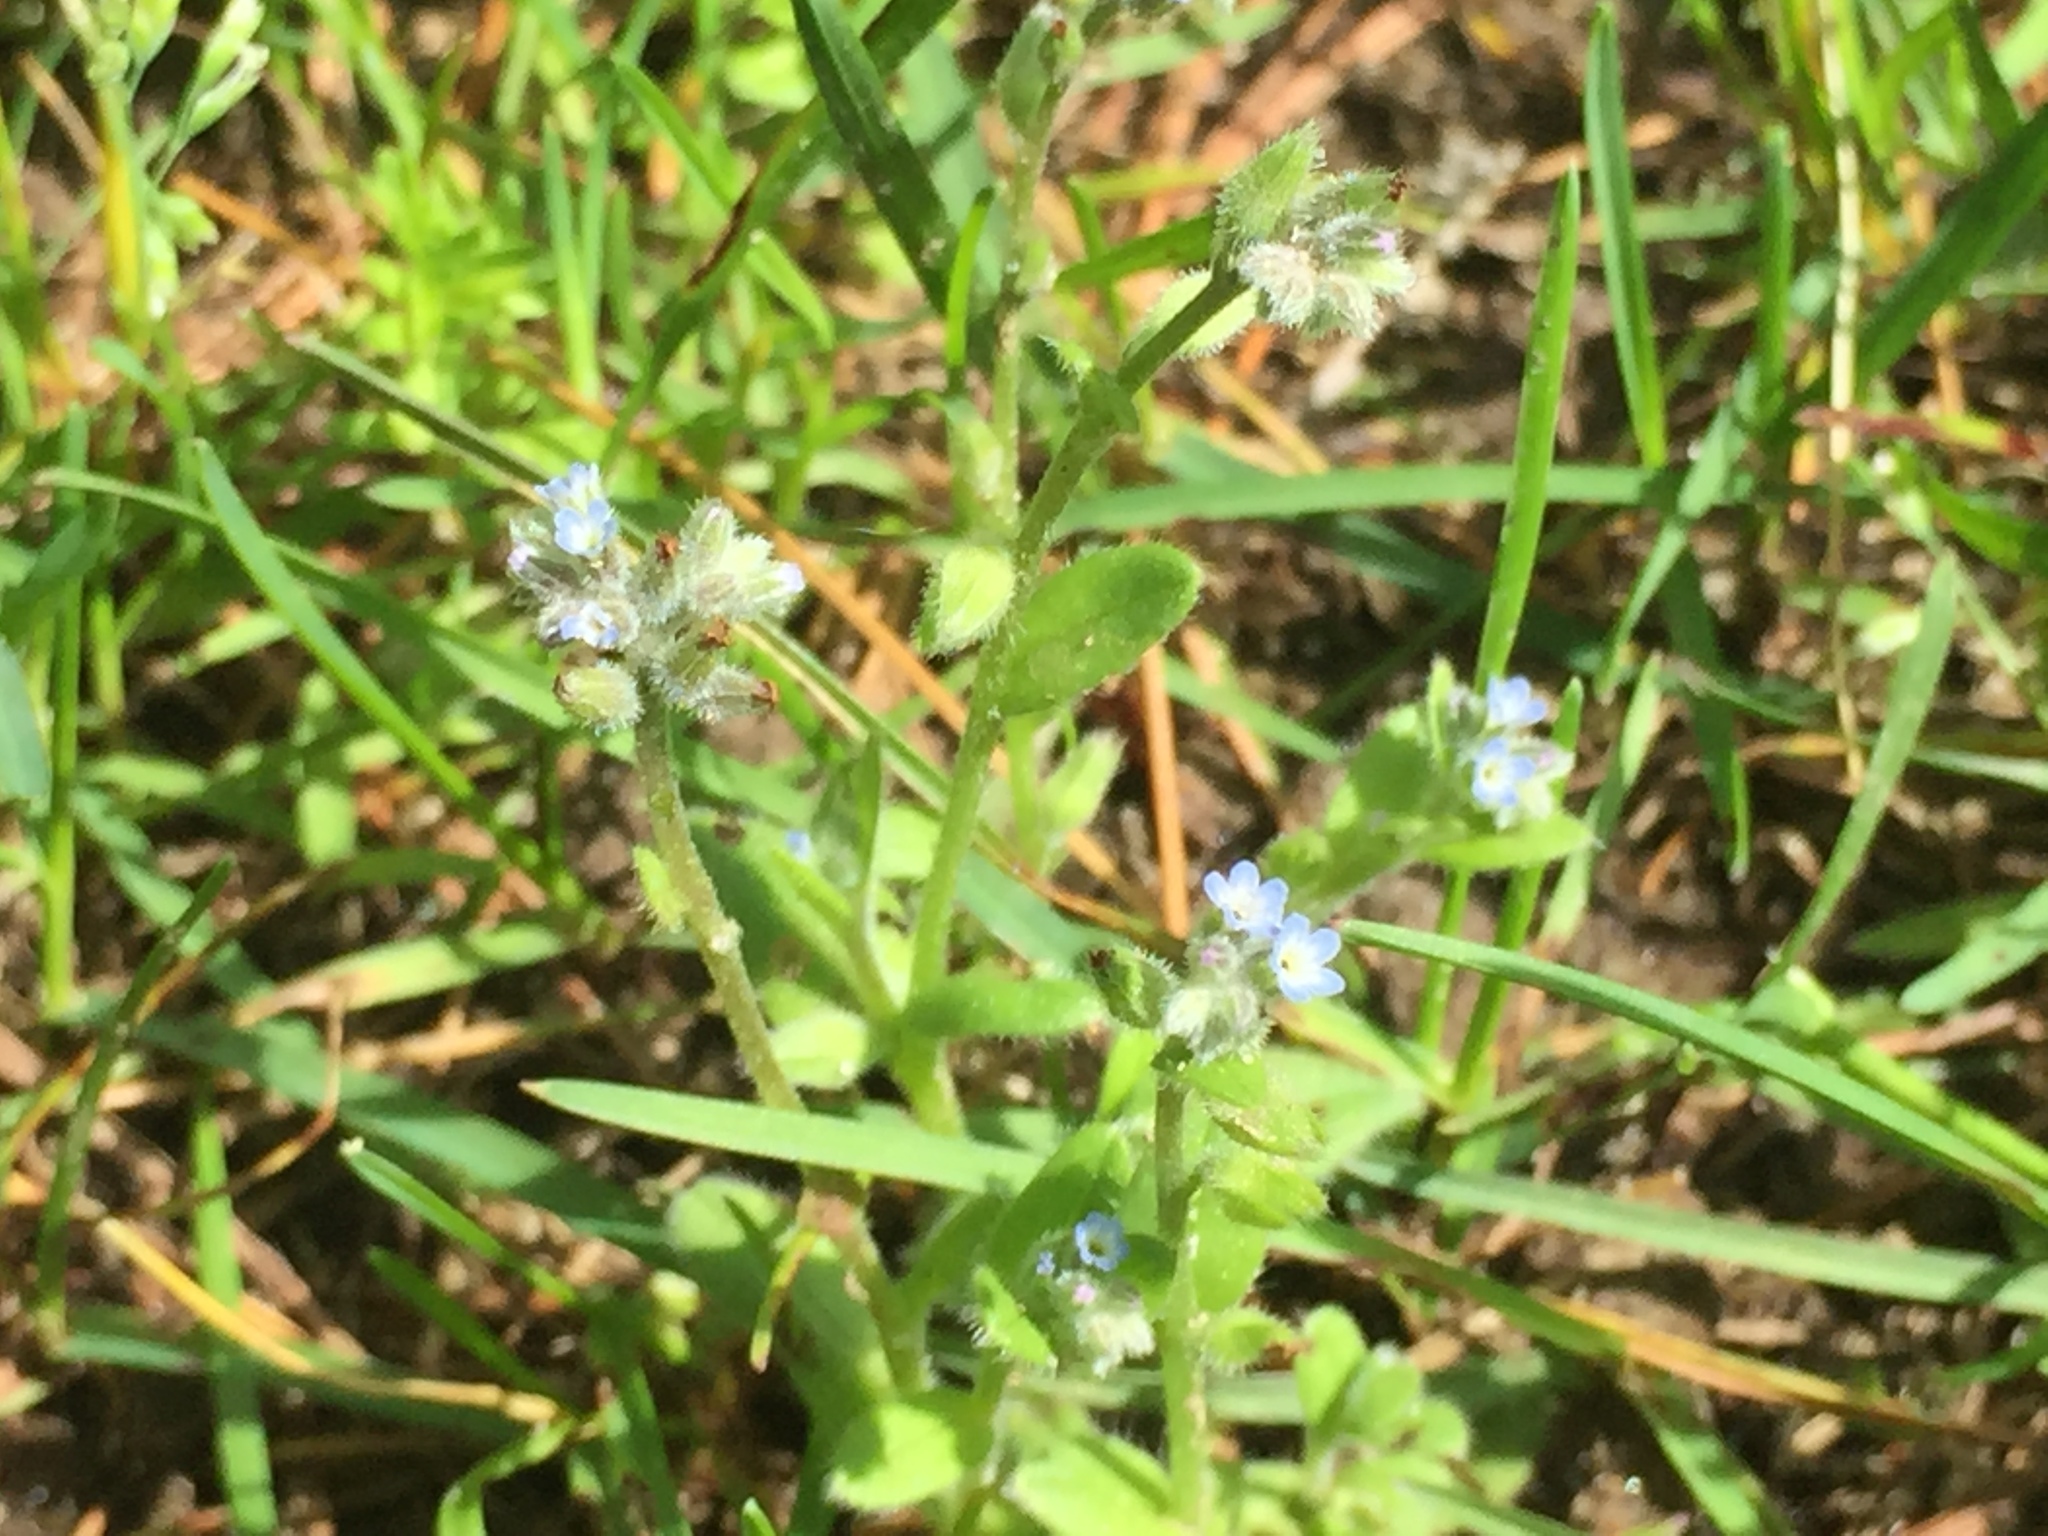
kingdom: Plantae
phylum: Tracheophyta
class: Magnoliopsida
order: Boraginales
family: Boraginaceae
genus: Myosotis
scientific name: Myosotis stricta
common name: Strict forget-me-not
